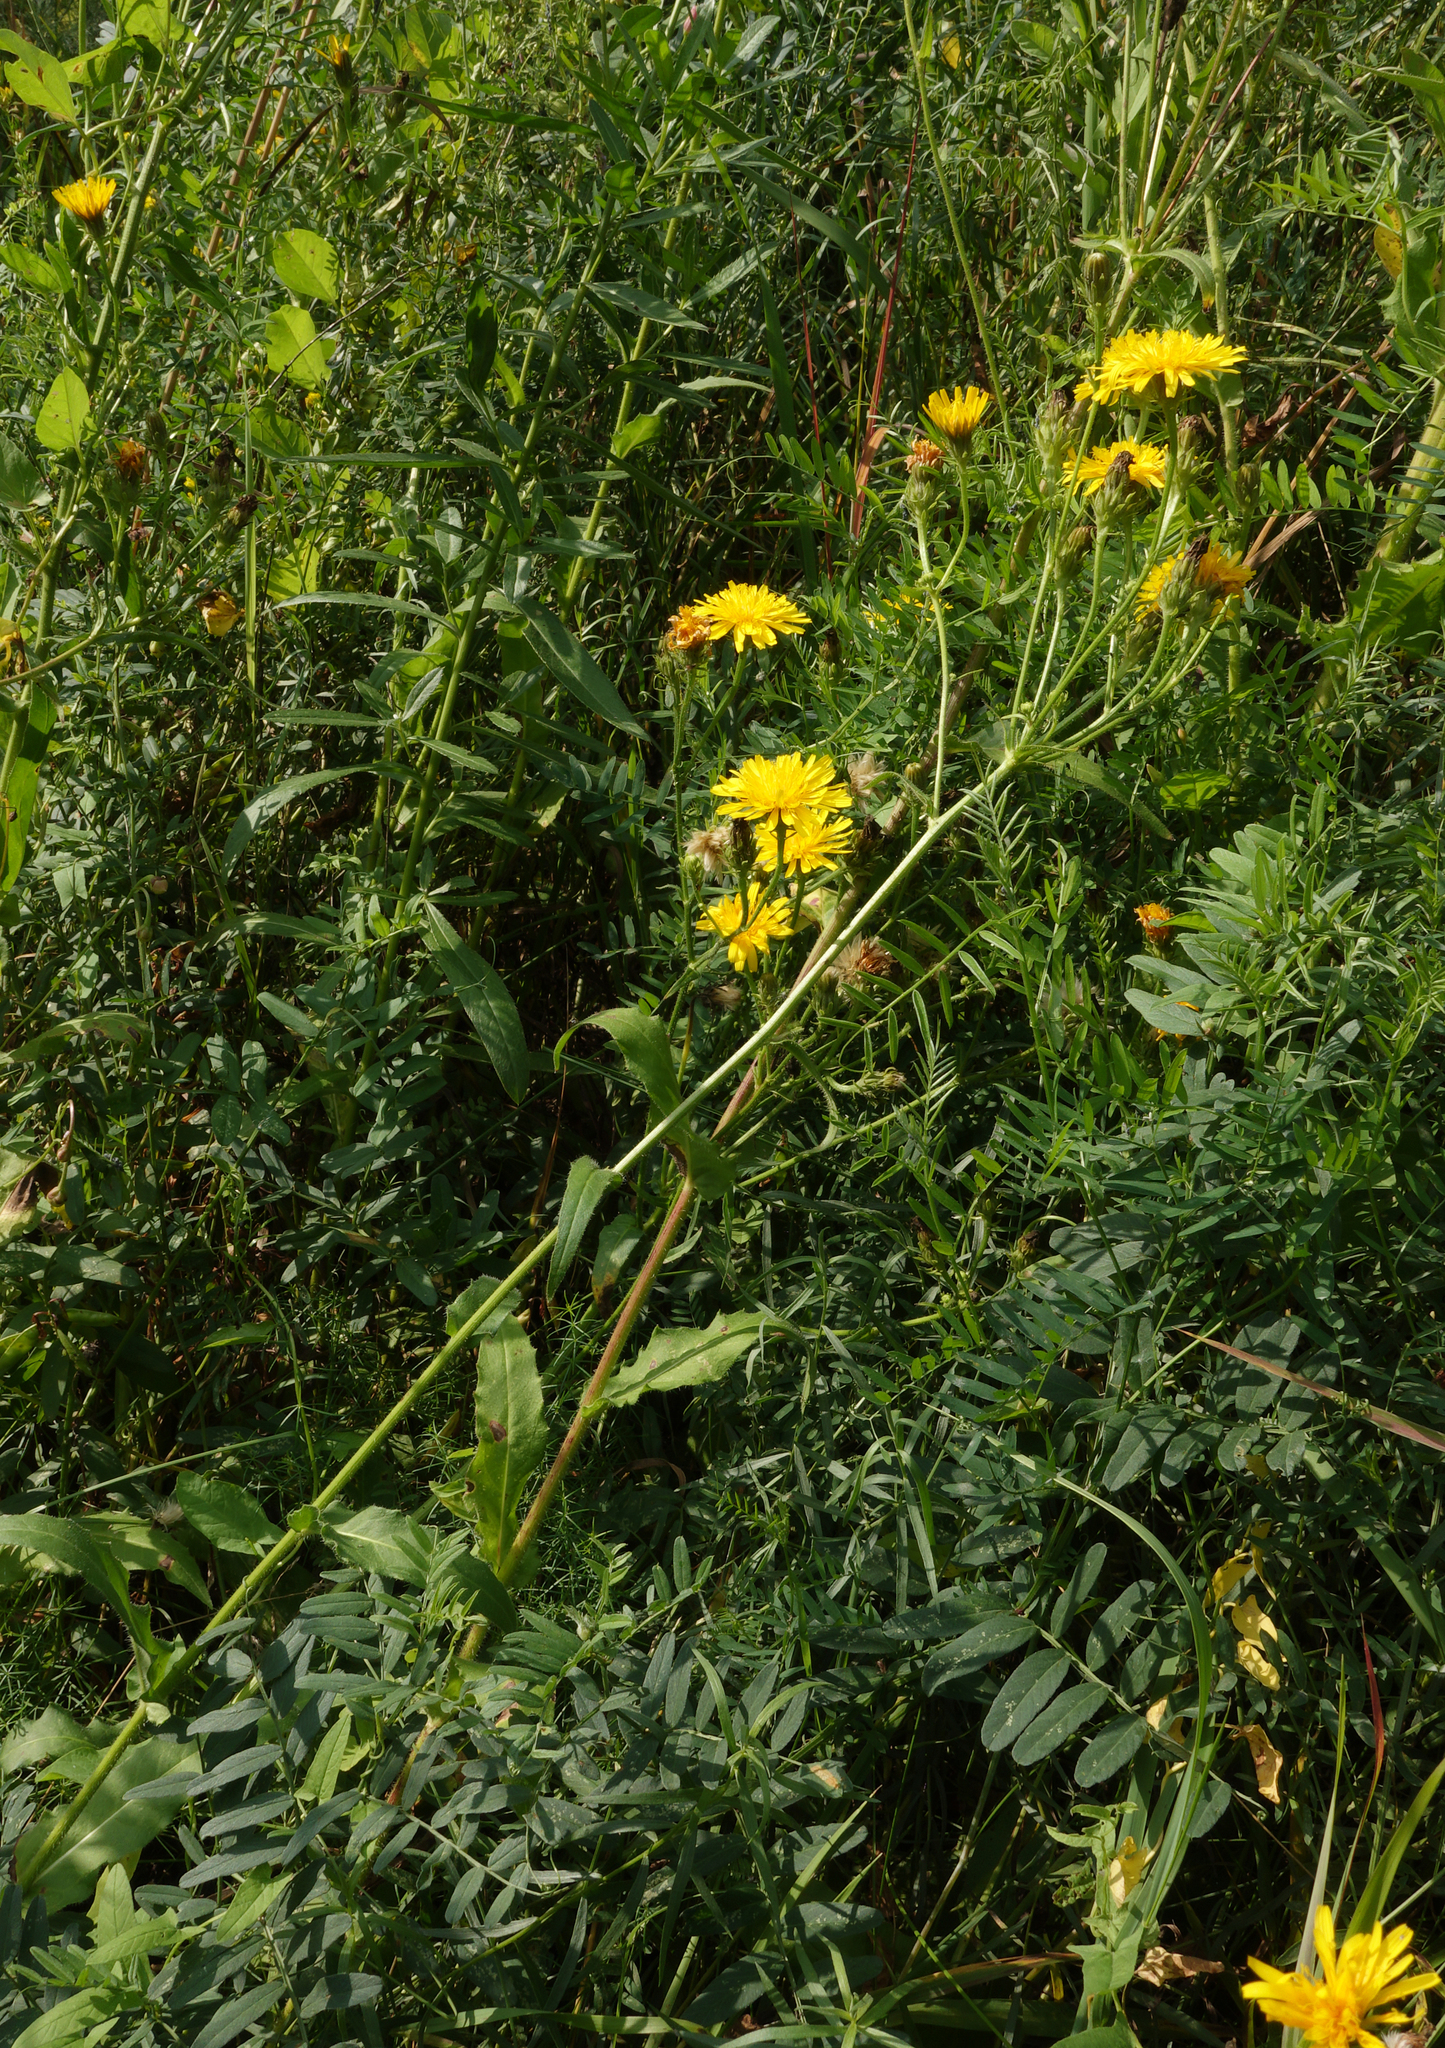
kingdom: Plantae
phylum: Tracheophyta
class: Magnoliopsida
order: Asterales
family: Asteraceae
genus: Picris
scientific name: Picris hieracioides
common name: Hawkweed oxtongue
